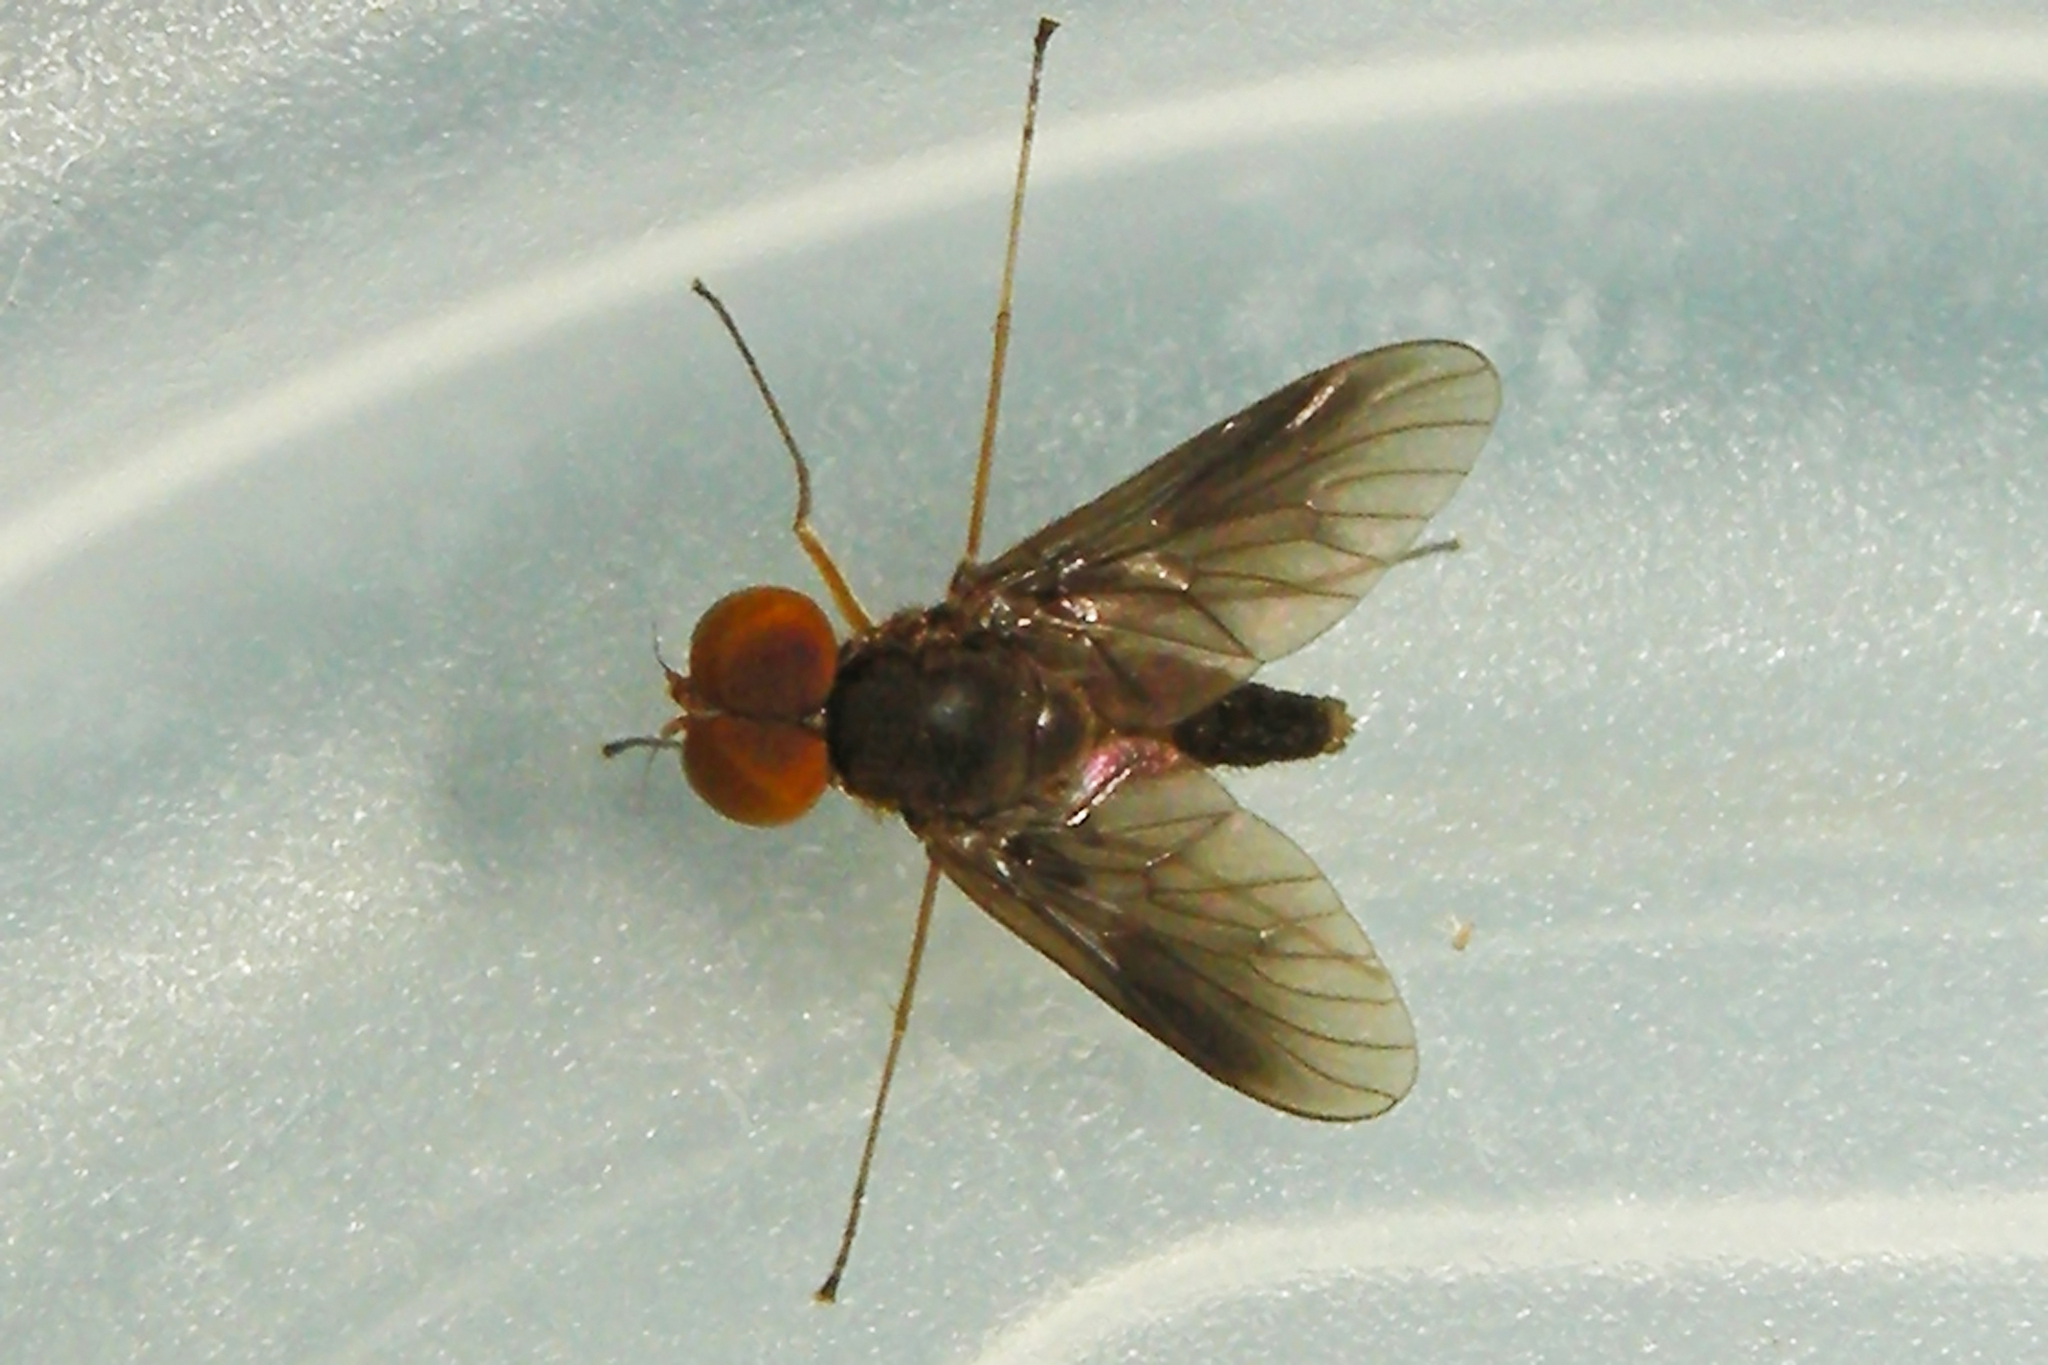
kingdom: Animalia
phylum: Arthropoda
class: Insecta
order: Diptera
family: Rhagionidae
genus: Chrysopilus
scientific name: Chrysopilus quadratus
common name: Quadrate snipe fly
